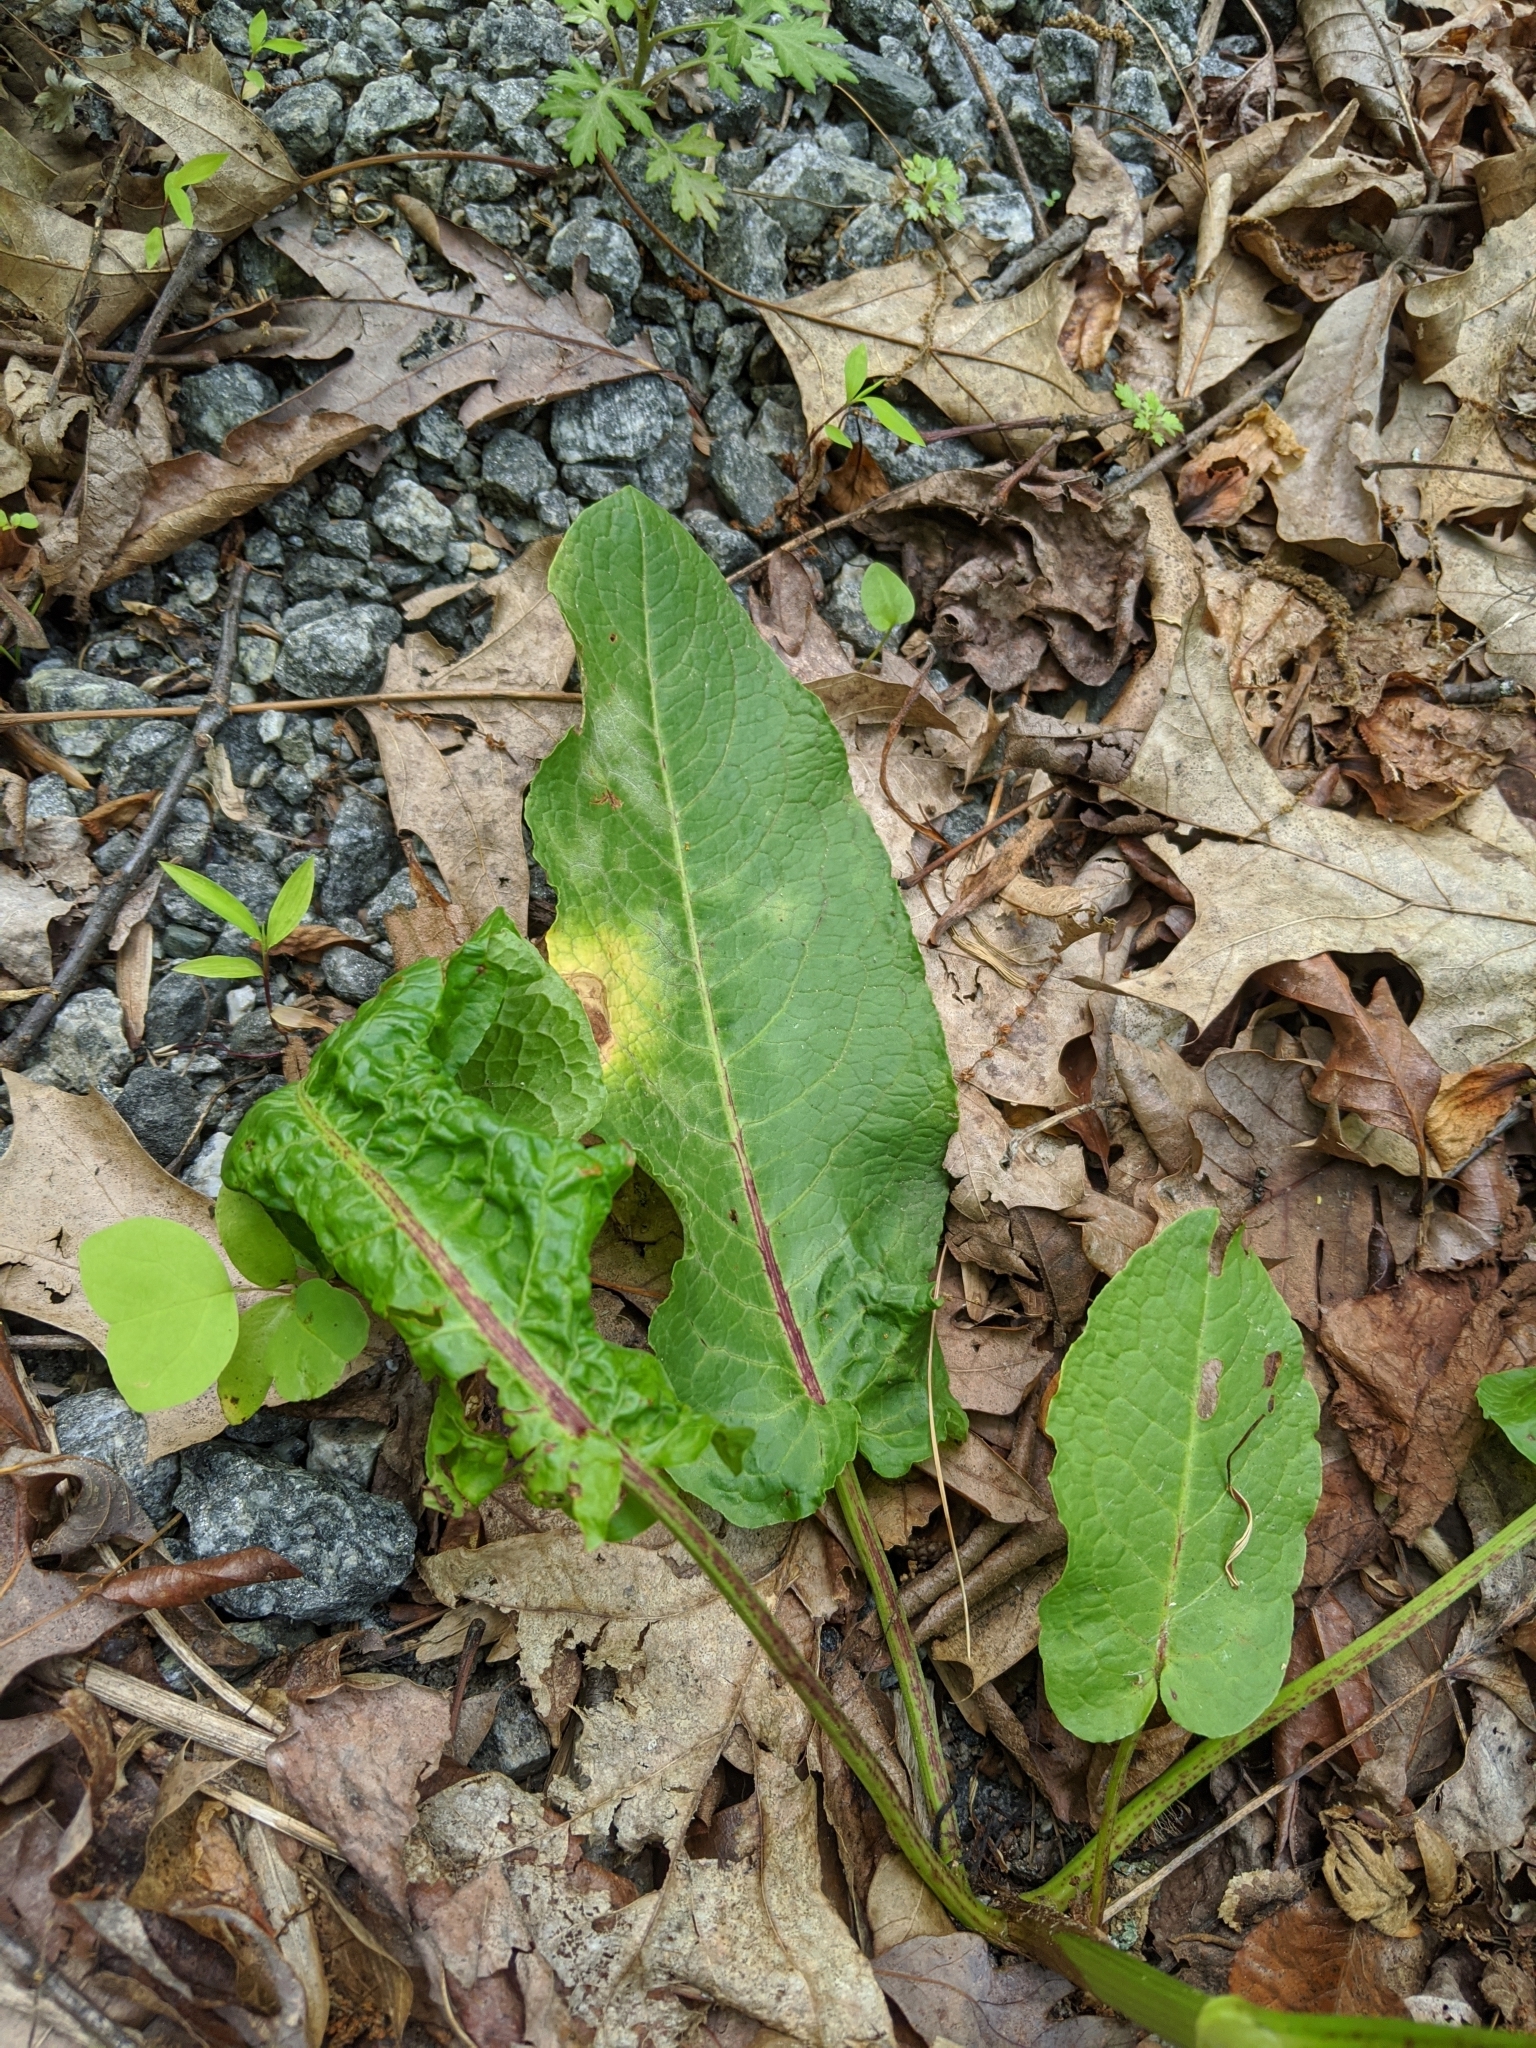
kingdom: Plantae
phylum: Tracheophyta
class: Magnoliopsida
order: Caryophyllales
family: Polygonaceae
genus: Rumex
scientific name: Rumex obtusifolius
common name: Bitter dock
